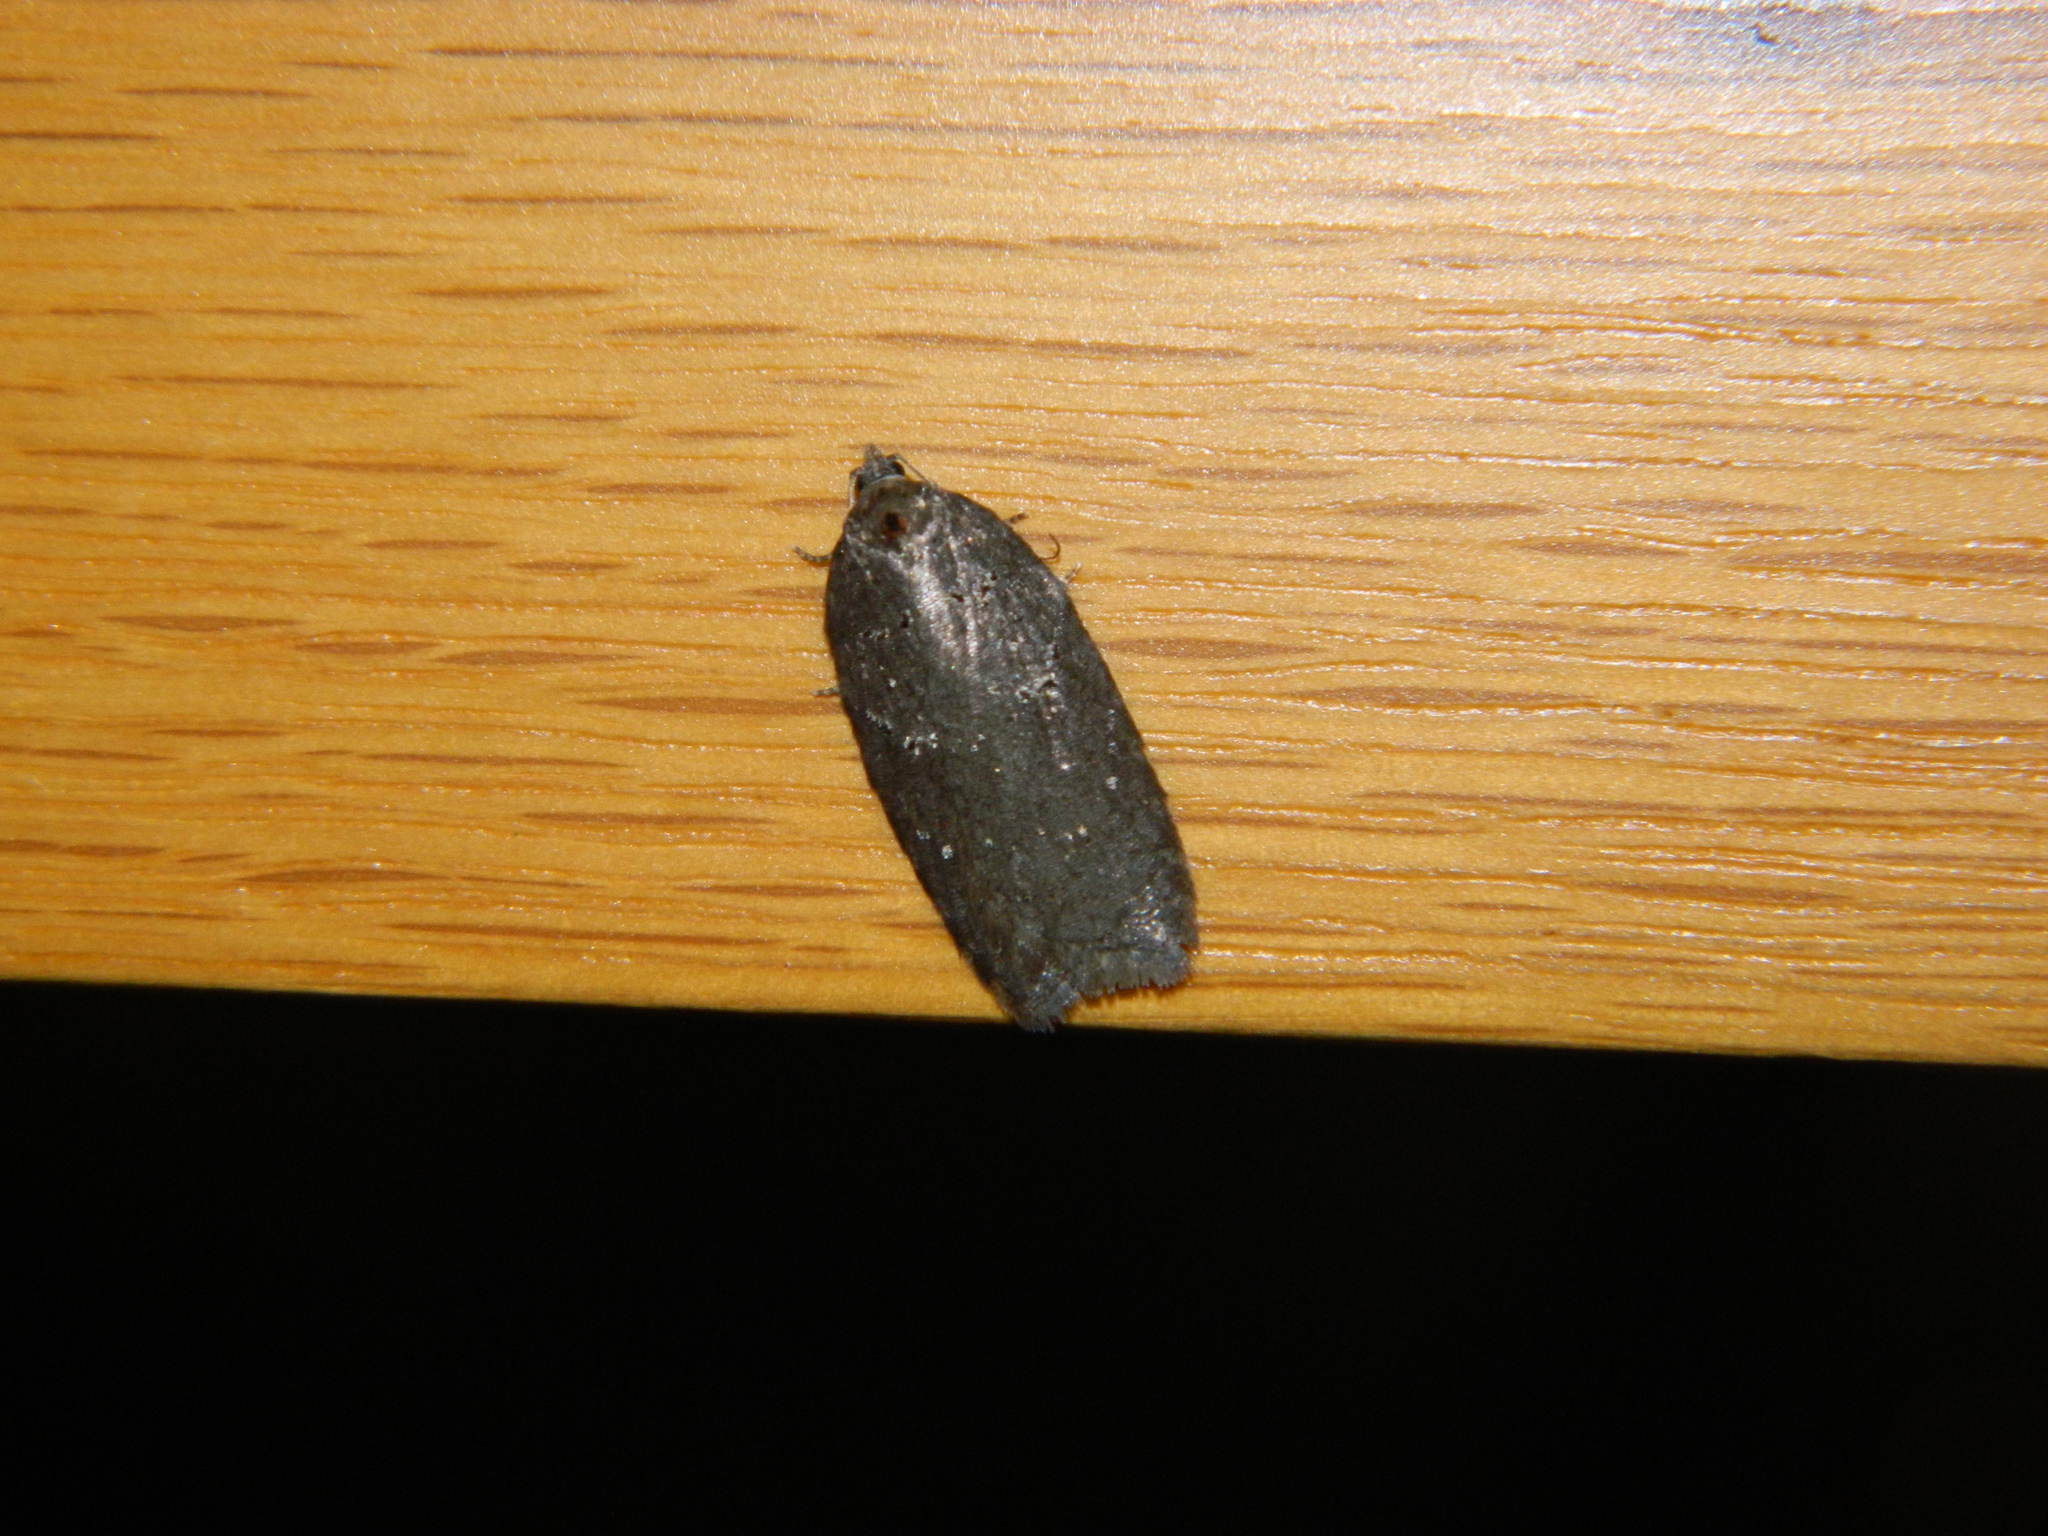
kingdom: Animalia
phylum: Arthropoda
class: Insecta
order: Lepidoptera
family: Tortricidae
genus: Acleris
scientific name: Acleris caliginosana
